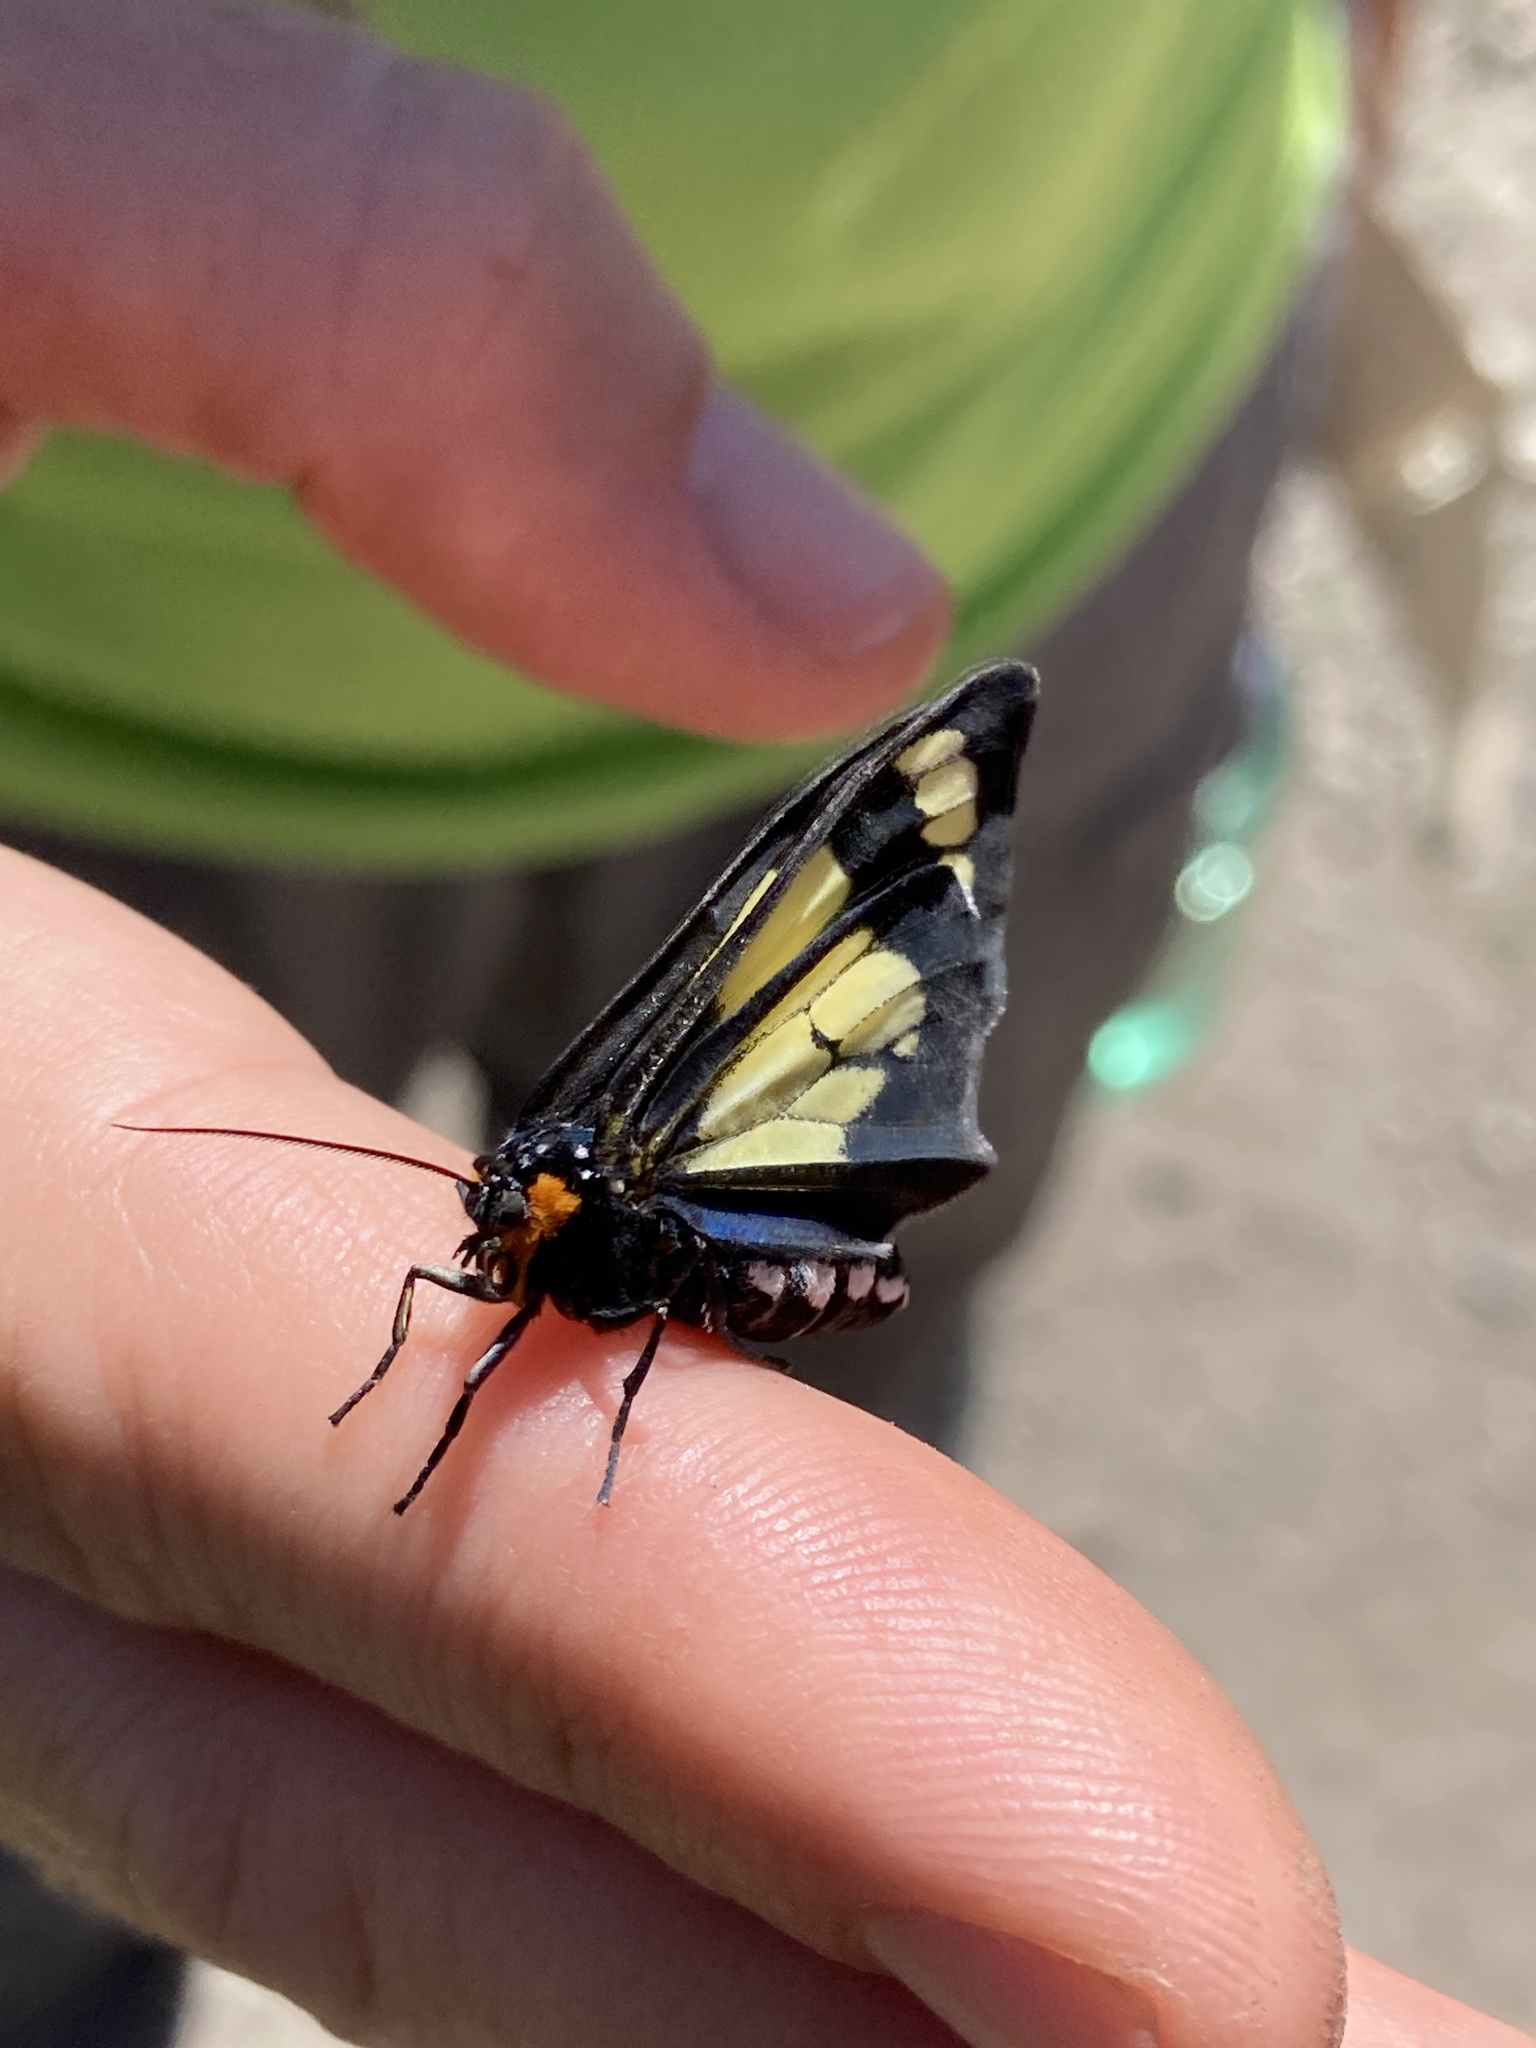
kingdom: Animalia
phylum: Arthropoda
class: Insecta
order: Lepidoptera
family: Erebidae
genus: Gnophaela
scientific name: Gnophaela vermiculata
